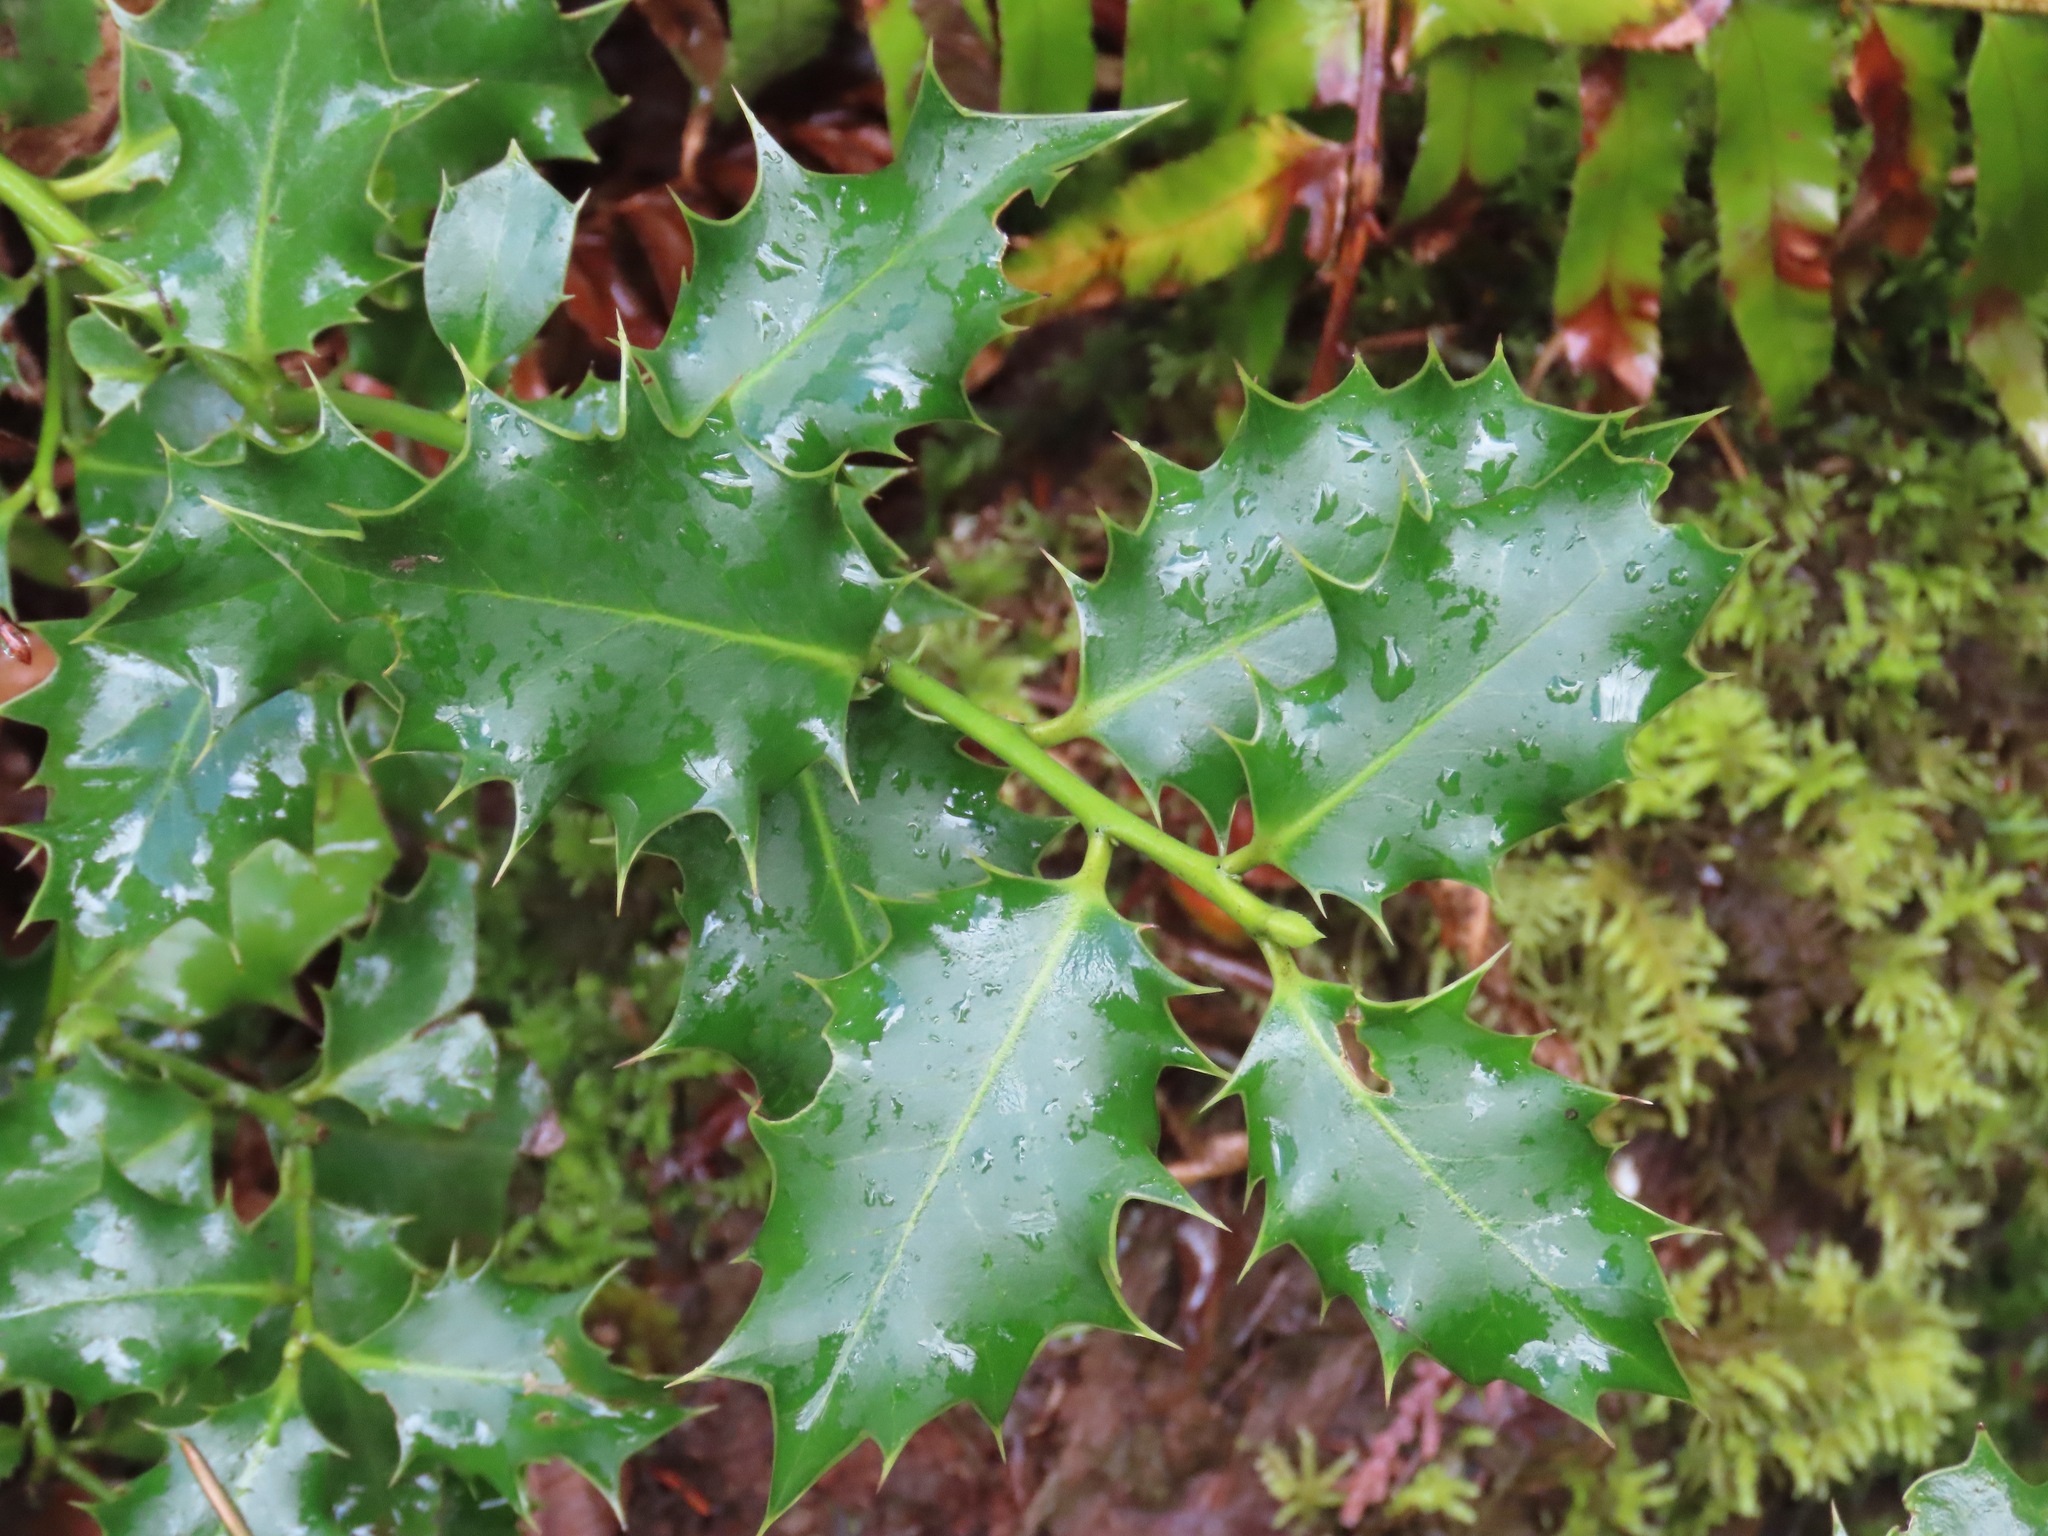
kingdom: Plantae
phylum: Tracheophyta
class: Magnoliopsida
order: Aquifoliales
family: Aquifoliaceae
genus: Ilex
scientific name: Ilex aquifolium
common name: English holly
